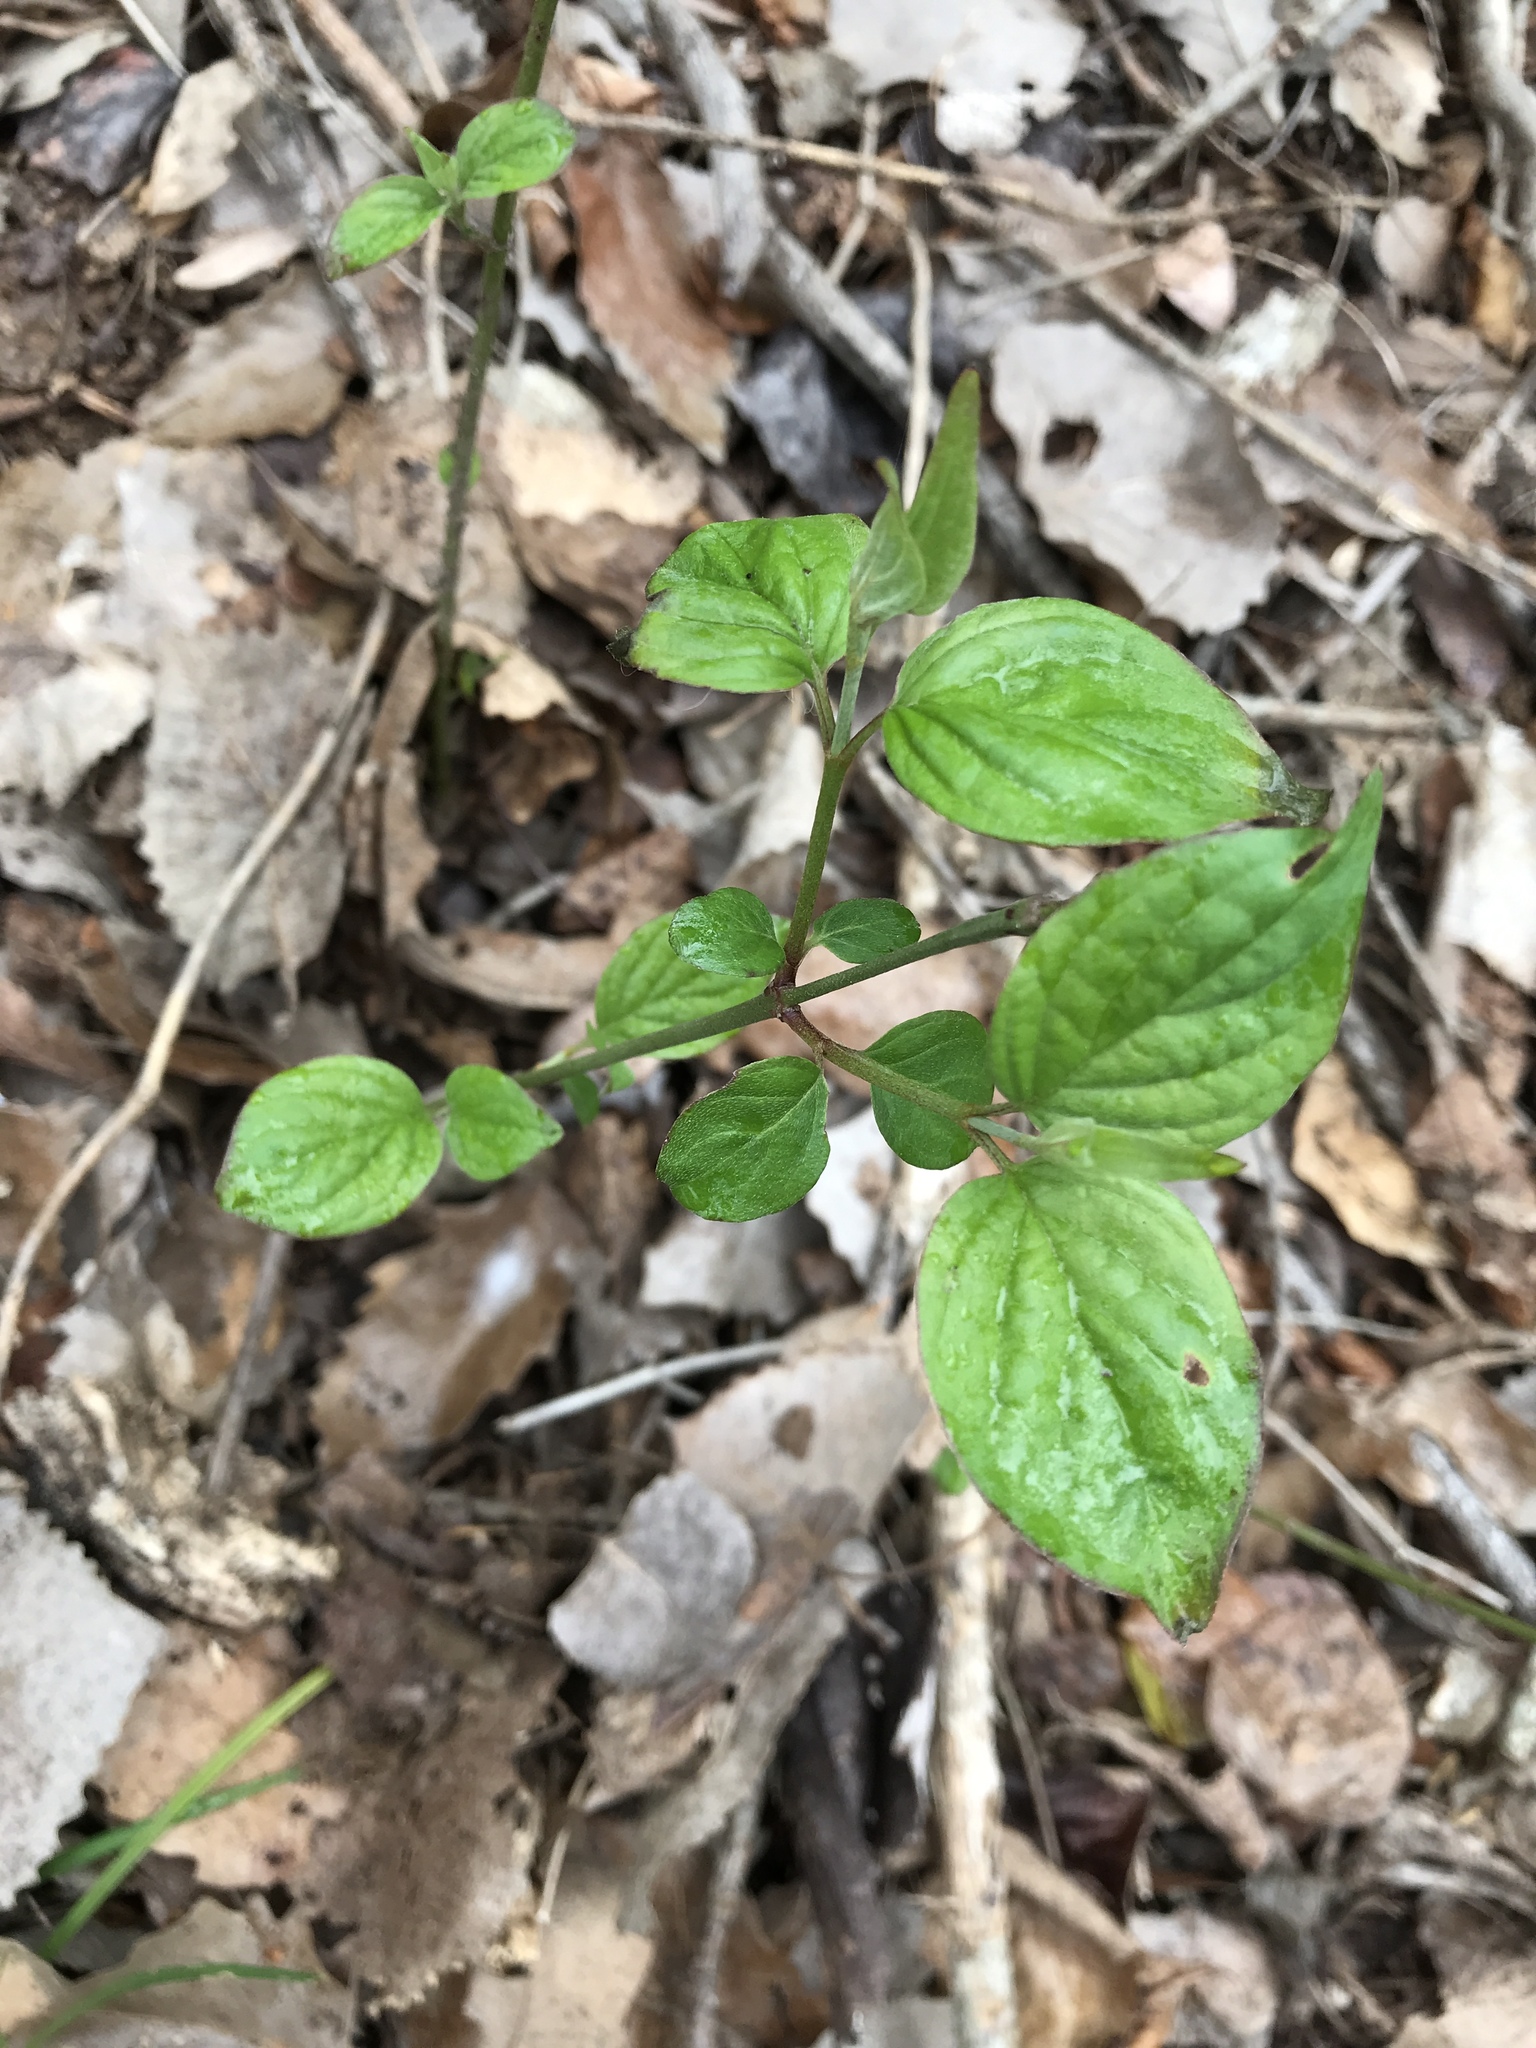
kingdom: Plantae
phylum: Tracheophyta
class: Magnoliopsida
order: Cornales
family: Cornaceae
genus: Cornus
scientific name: Cornus drummondii
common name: Rough-leaf dogwood
